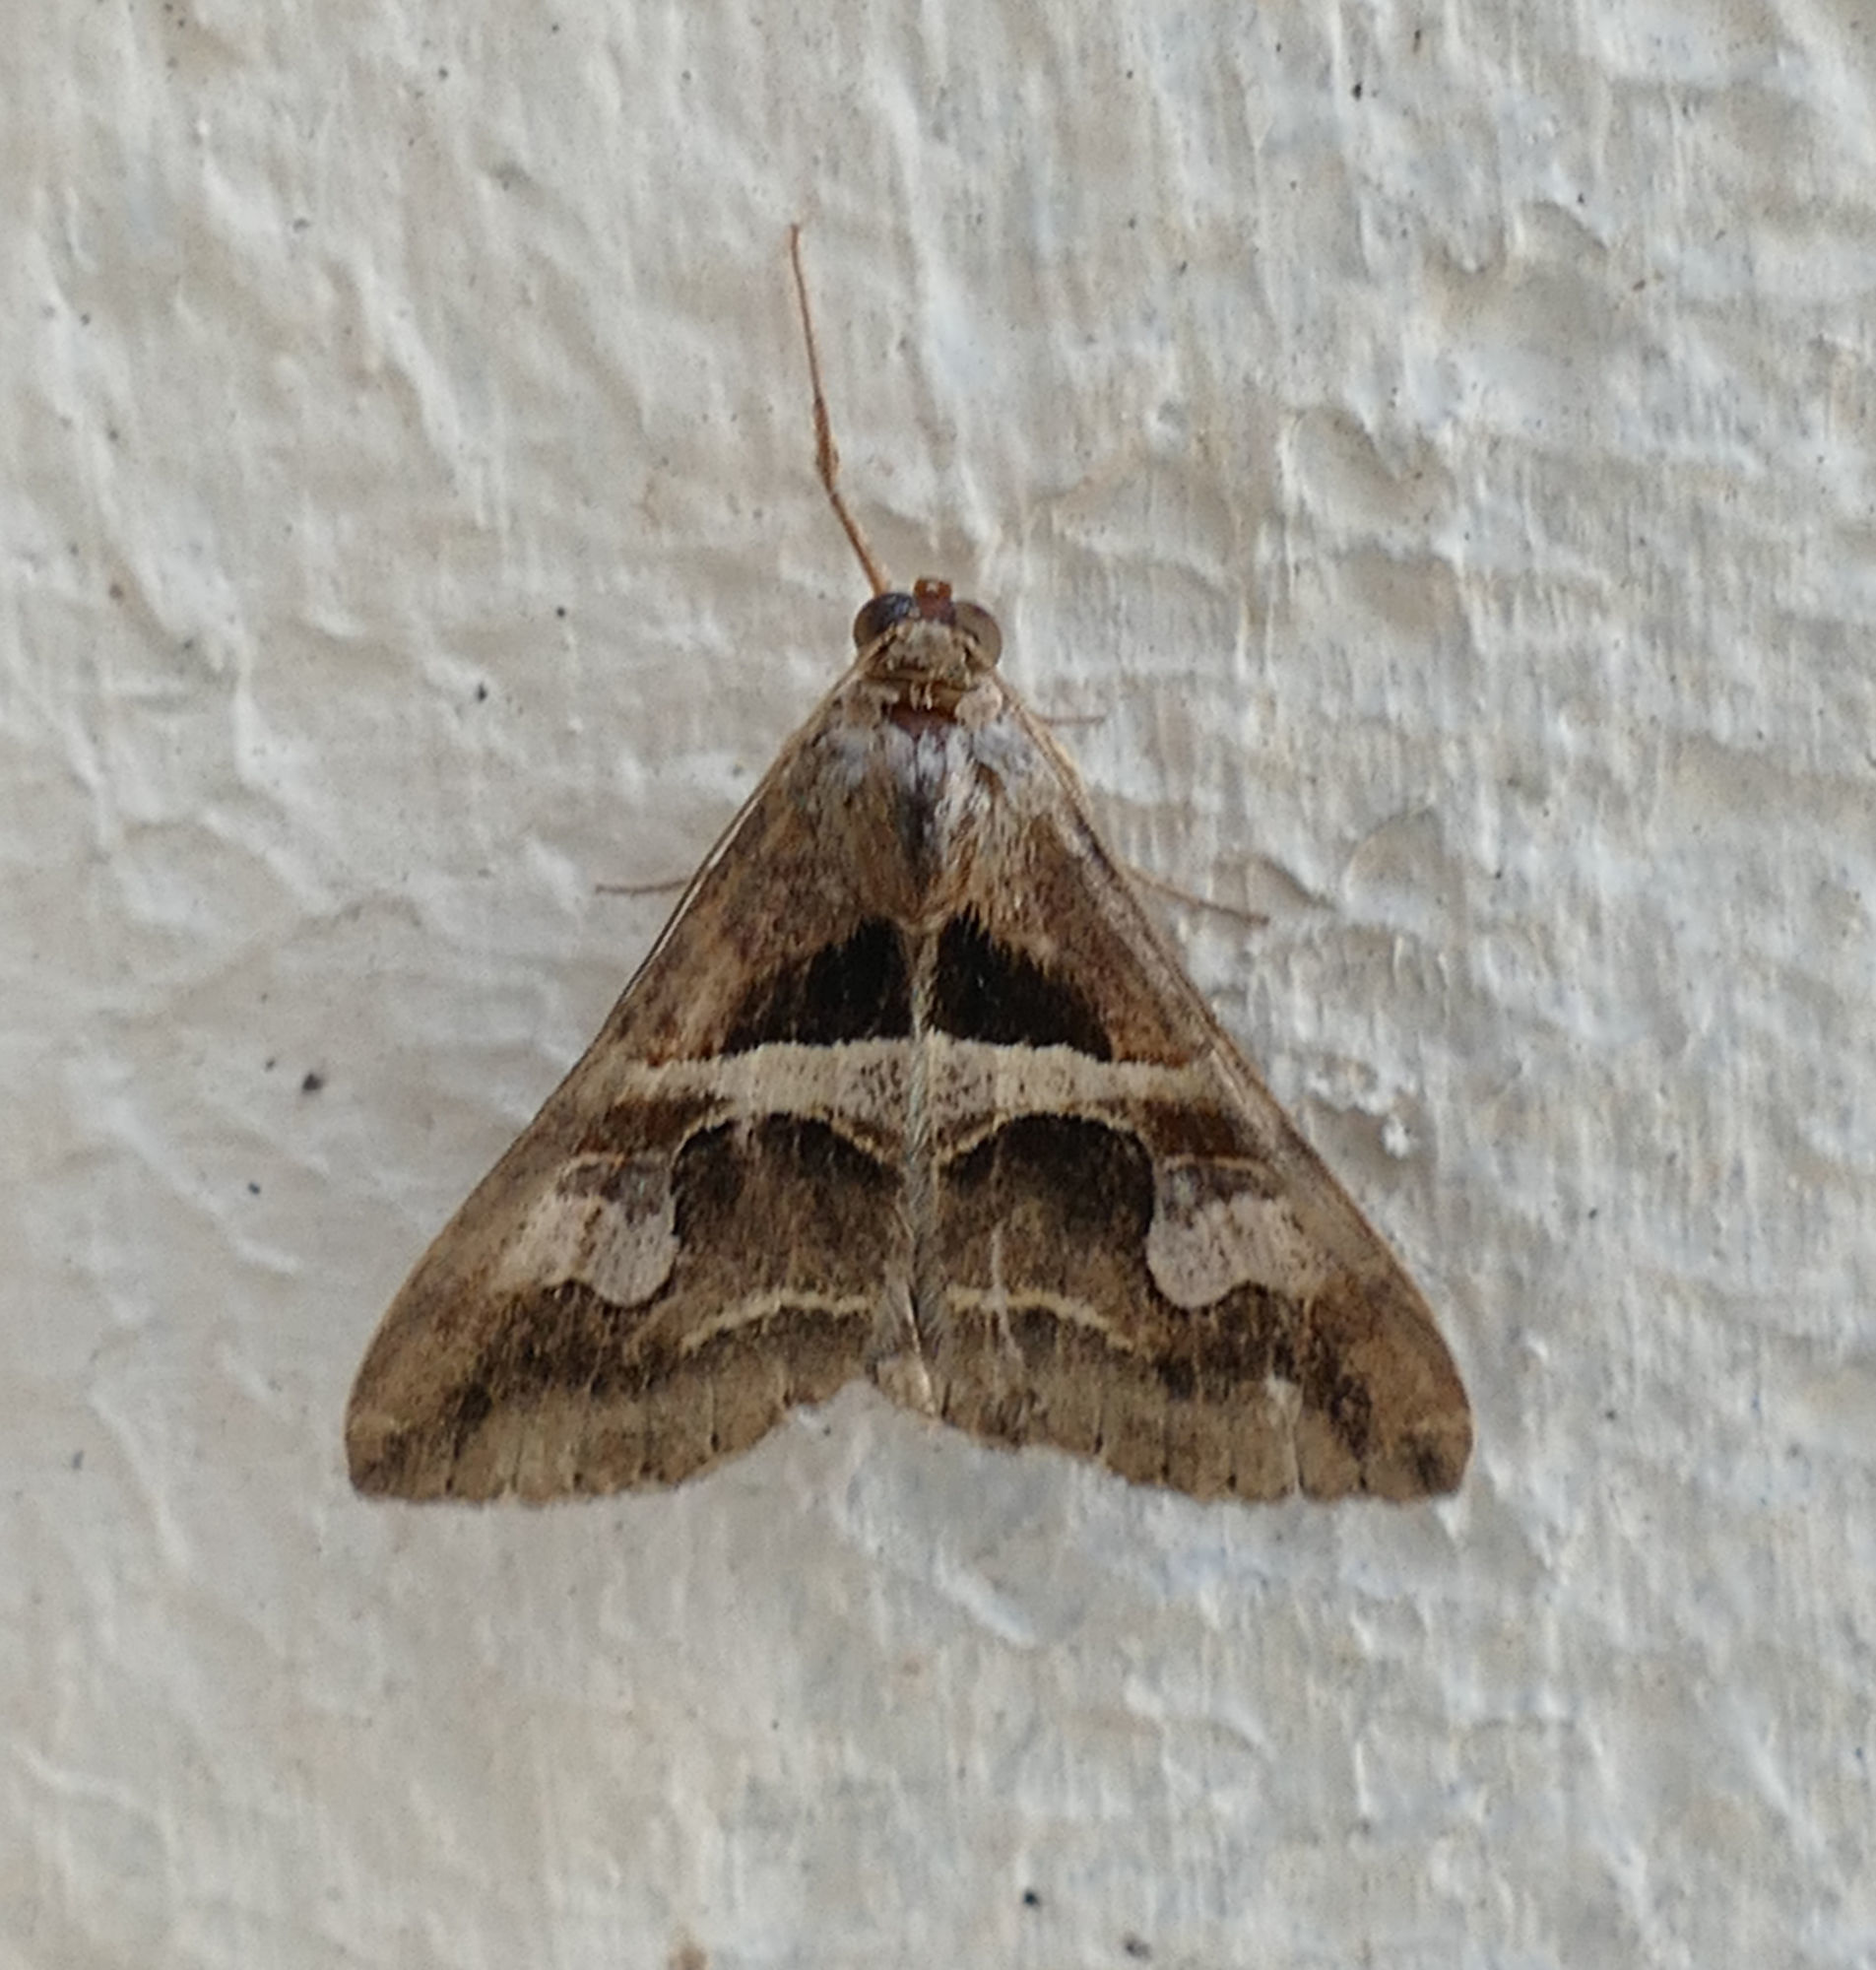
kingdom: Animalia
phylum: Arthropoda
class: Insecta
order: Lepidoptera
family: Erebidae
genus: Melipotis
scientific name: Melipotis cellaris
